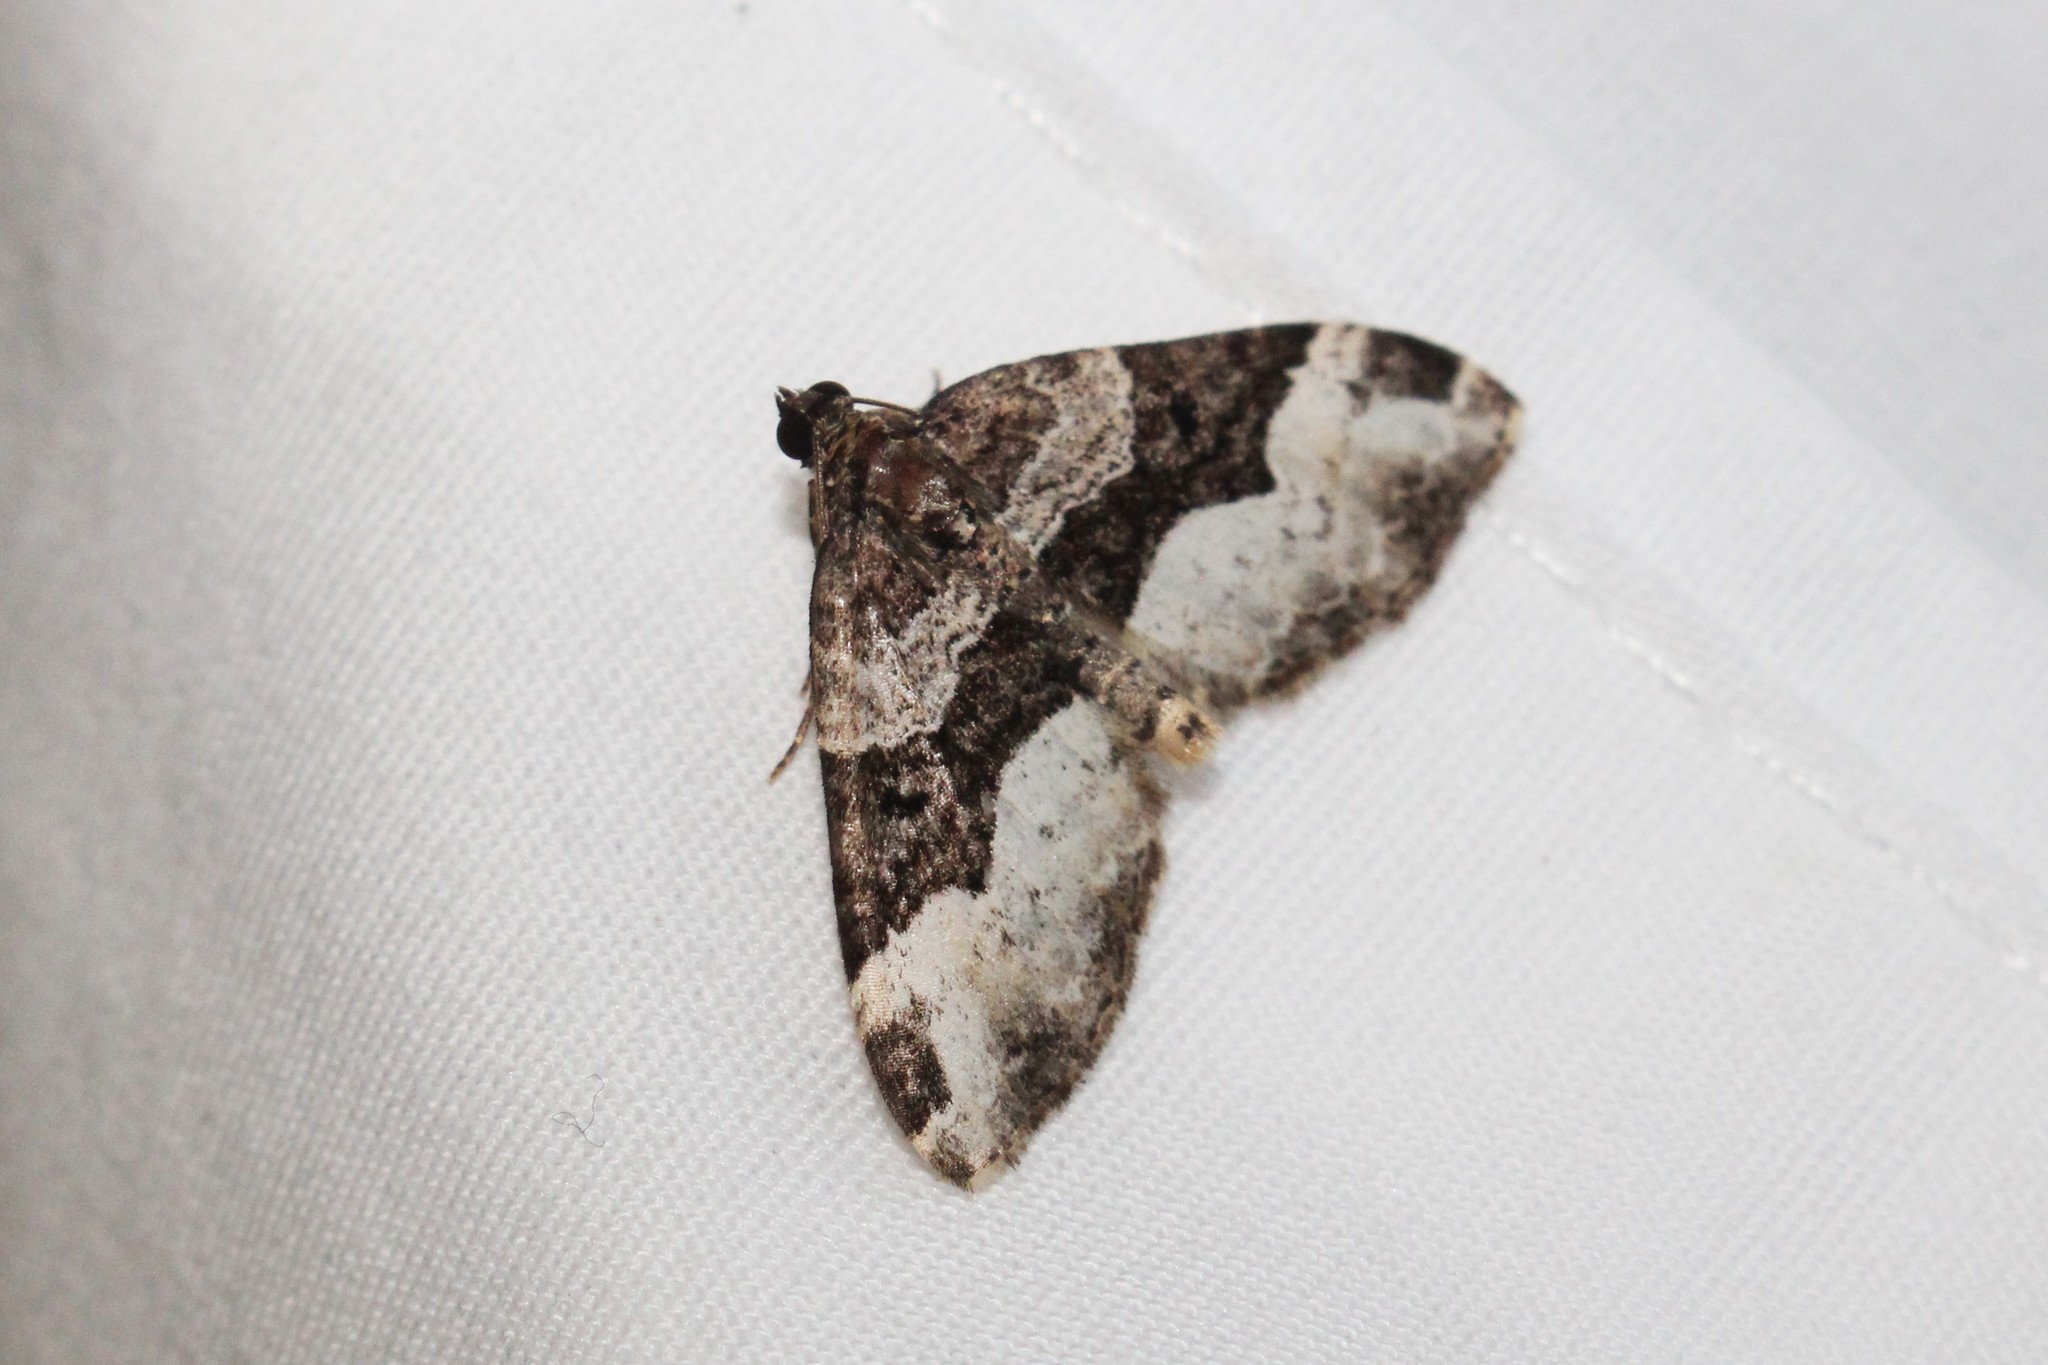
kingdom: Animalia
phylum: Arthropoda
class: Insecta
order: Lepidoptera
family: Geometridae
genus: Euphyia
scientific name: Euphyia intermediata
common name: Sharp-angled carpet
